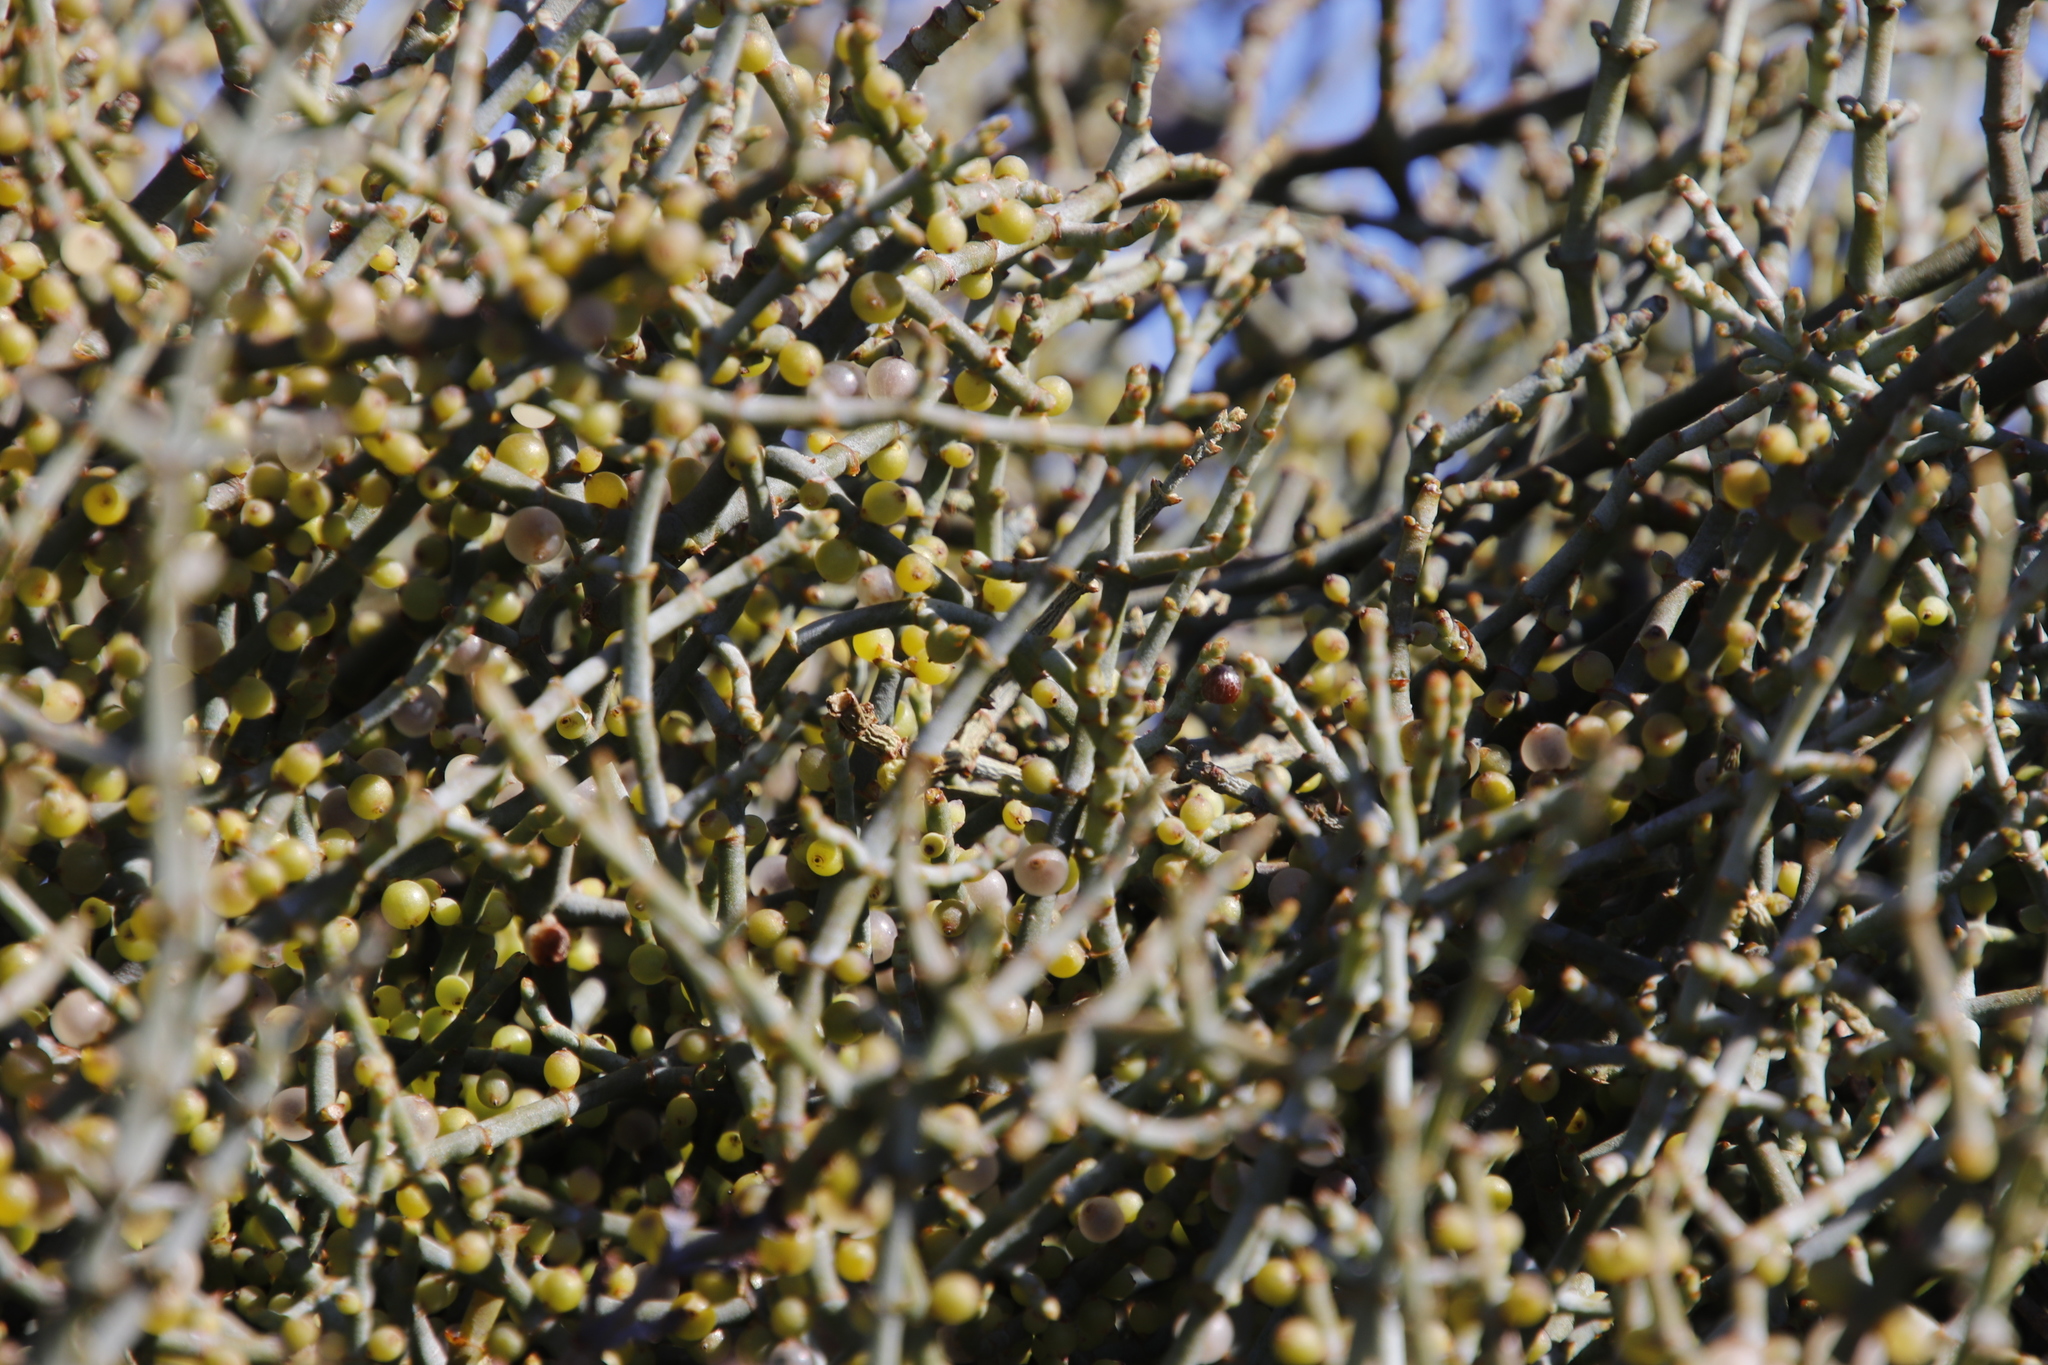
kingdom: Plantae
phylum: Tracheophyta
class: Magnoliopsida
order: Santalales
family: Viscaceae
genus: Viscum
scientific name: Viscum capense
